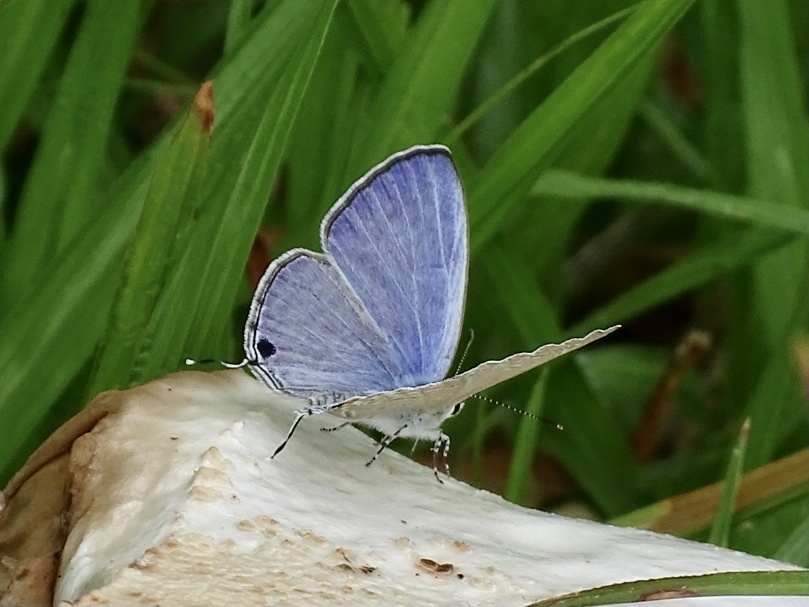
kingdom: Animalia
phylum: Arthropoda
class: Insecta
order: Lepidoptera
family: Lycaenidae
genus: Catochrysops
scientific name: Catochrysops strabo
